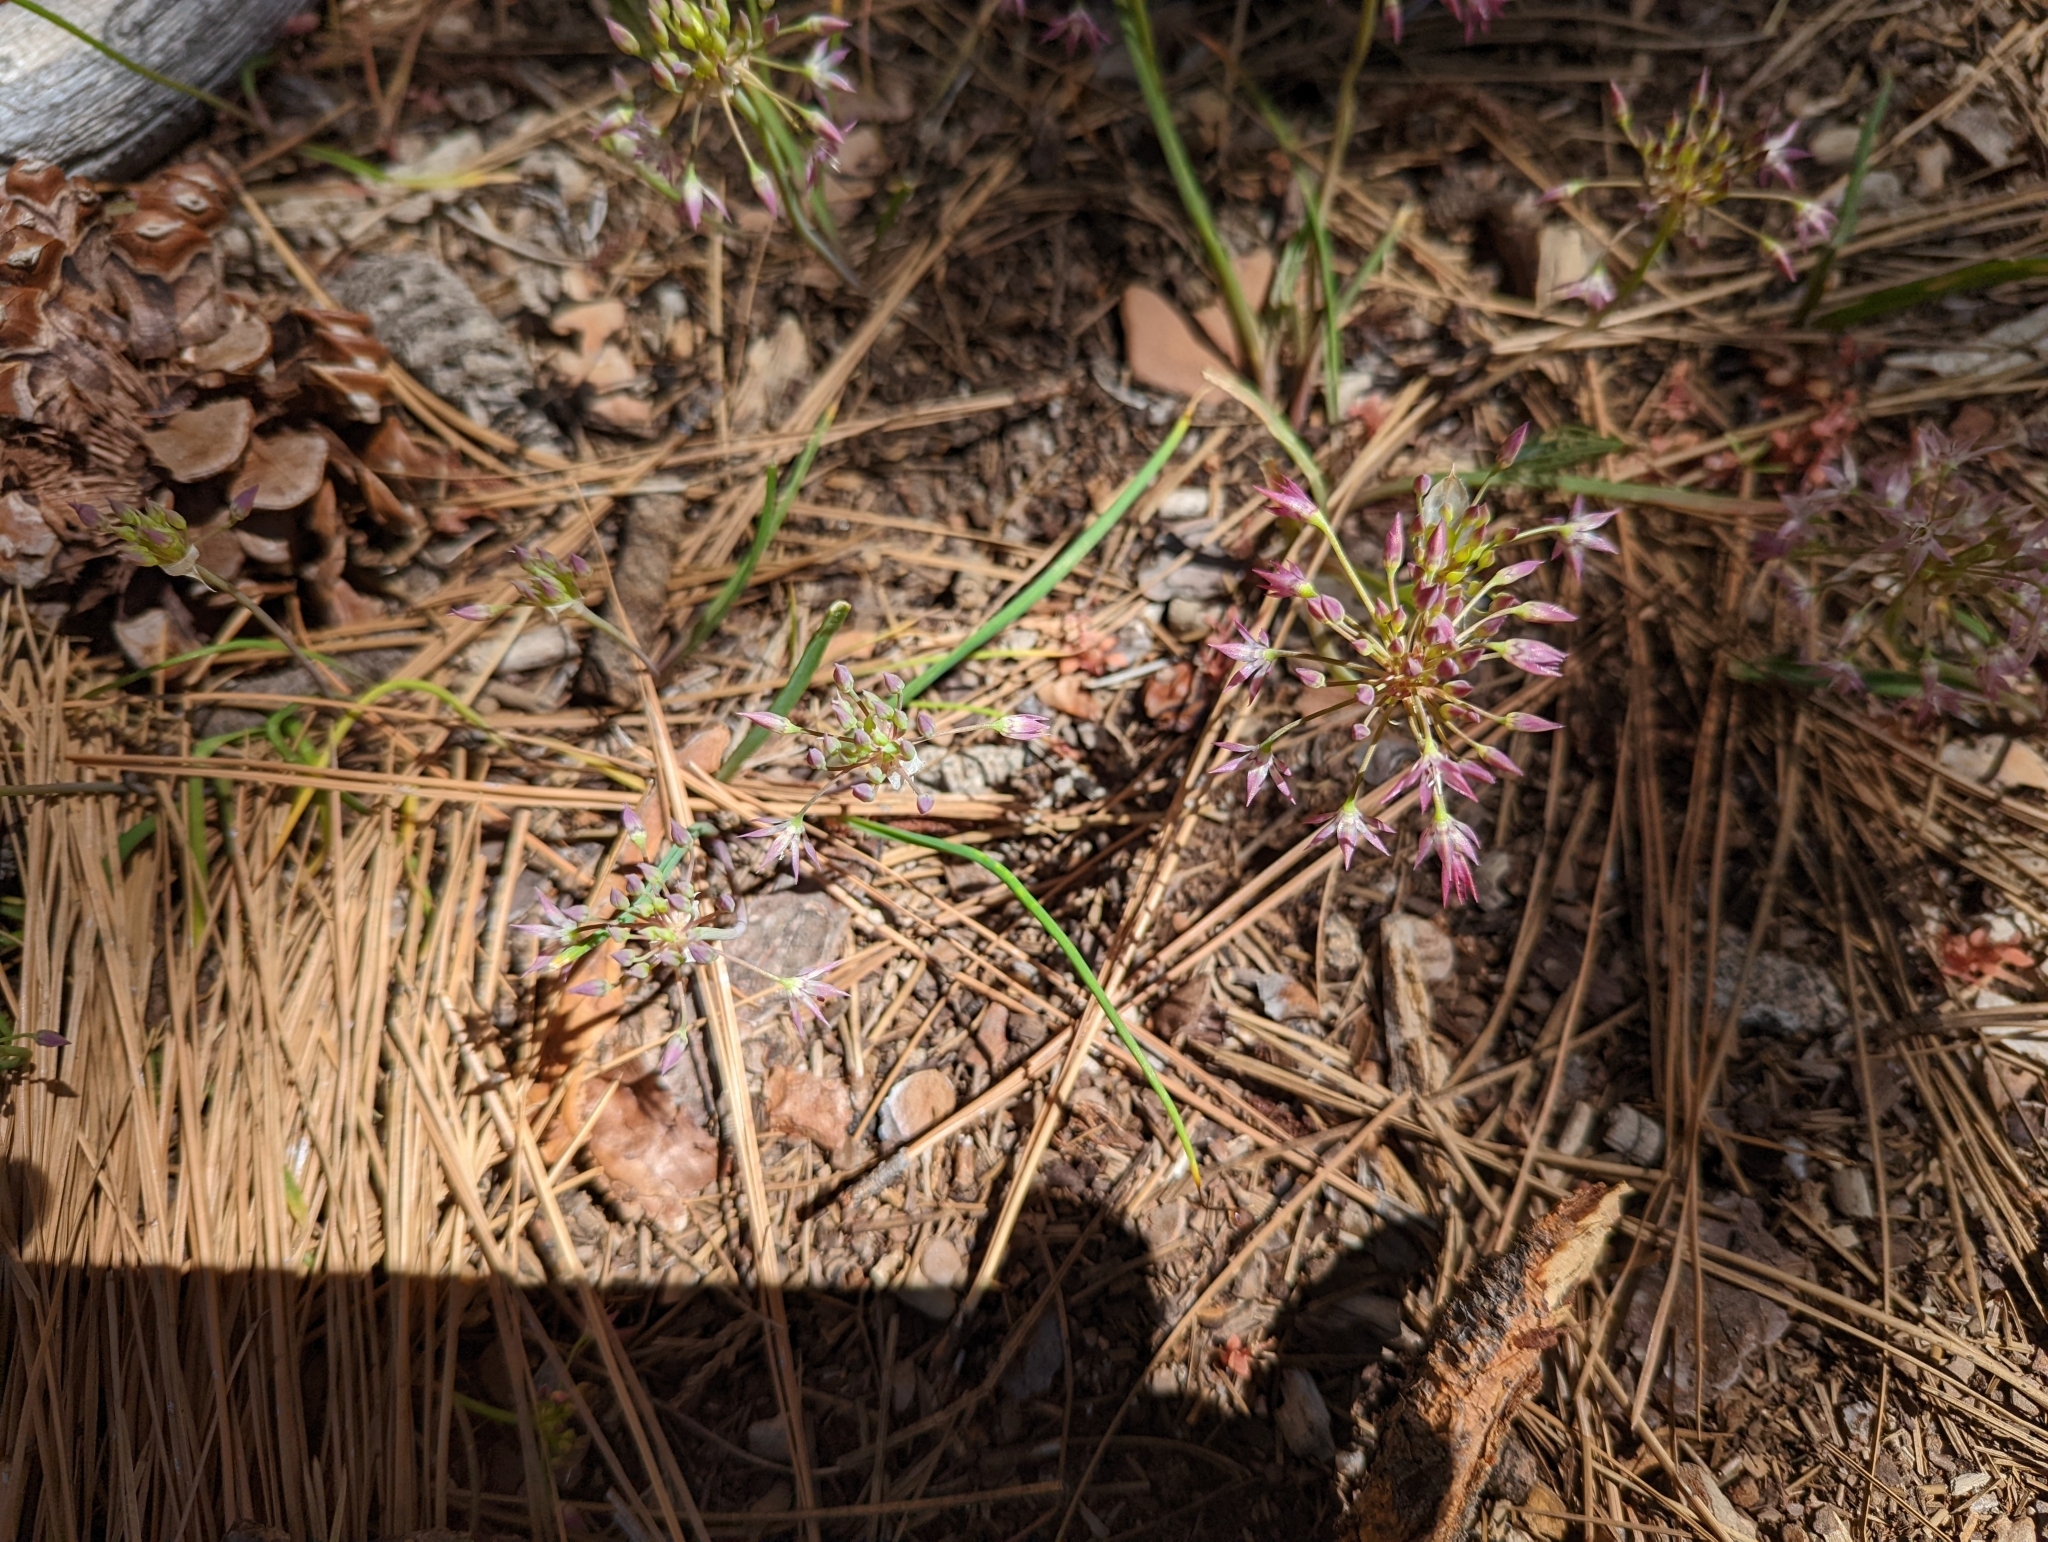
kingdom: Plantae
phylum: Tracheophyta
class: Liliopsida
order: Asparagales
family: Amaryllidaceae
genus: Allium
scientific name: Allium campanulatum
